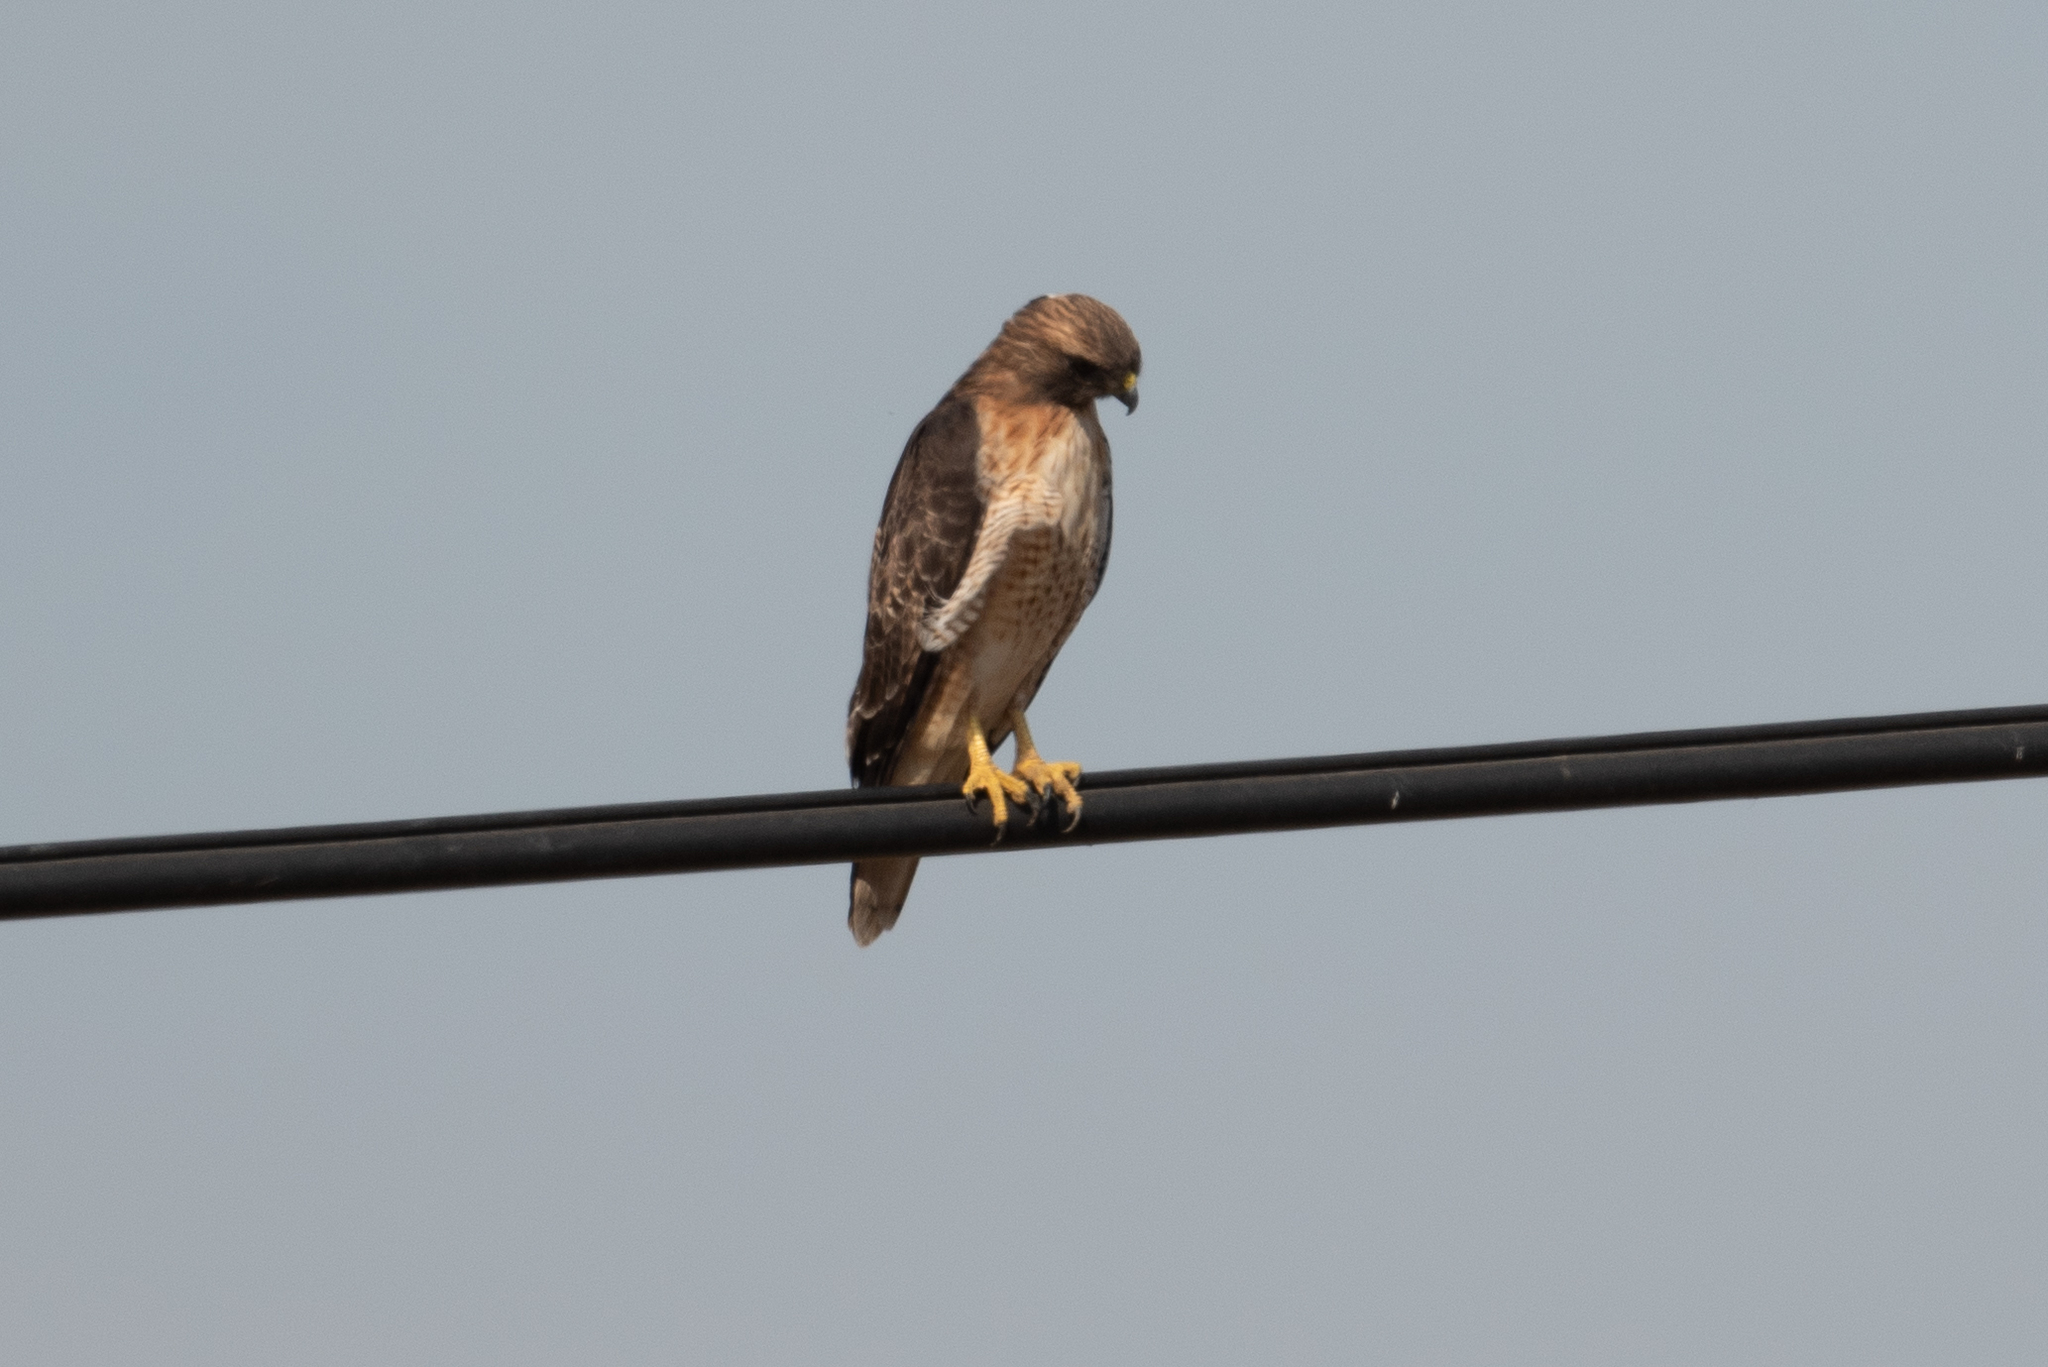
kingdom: Animalia
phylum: Chordata
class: Aves
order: Accipitriformes
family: Accipitridae
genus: Buteo
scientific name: Buteo jamaicensis
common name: Red-tailed hawk
